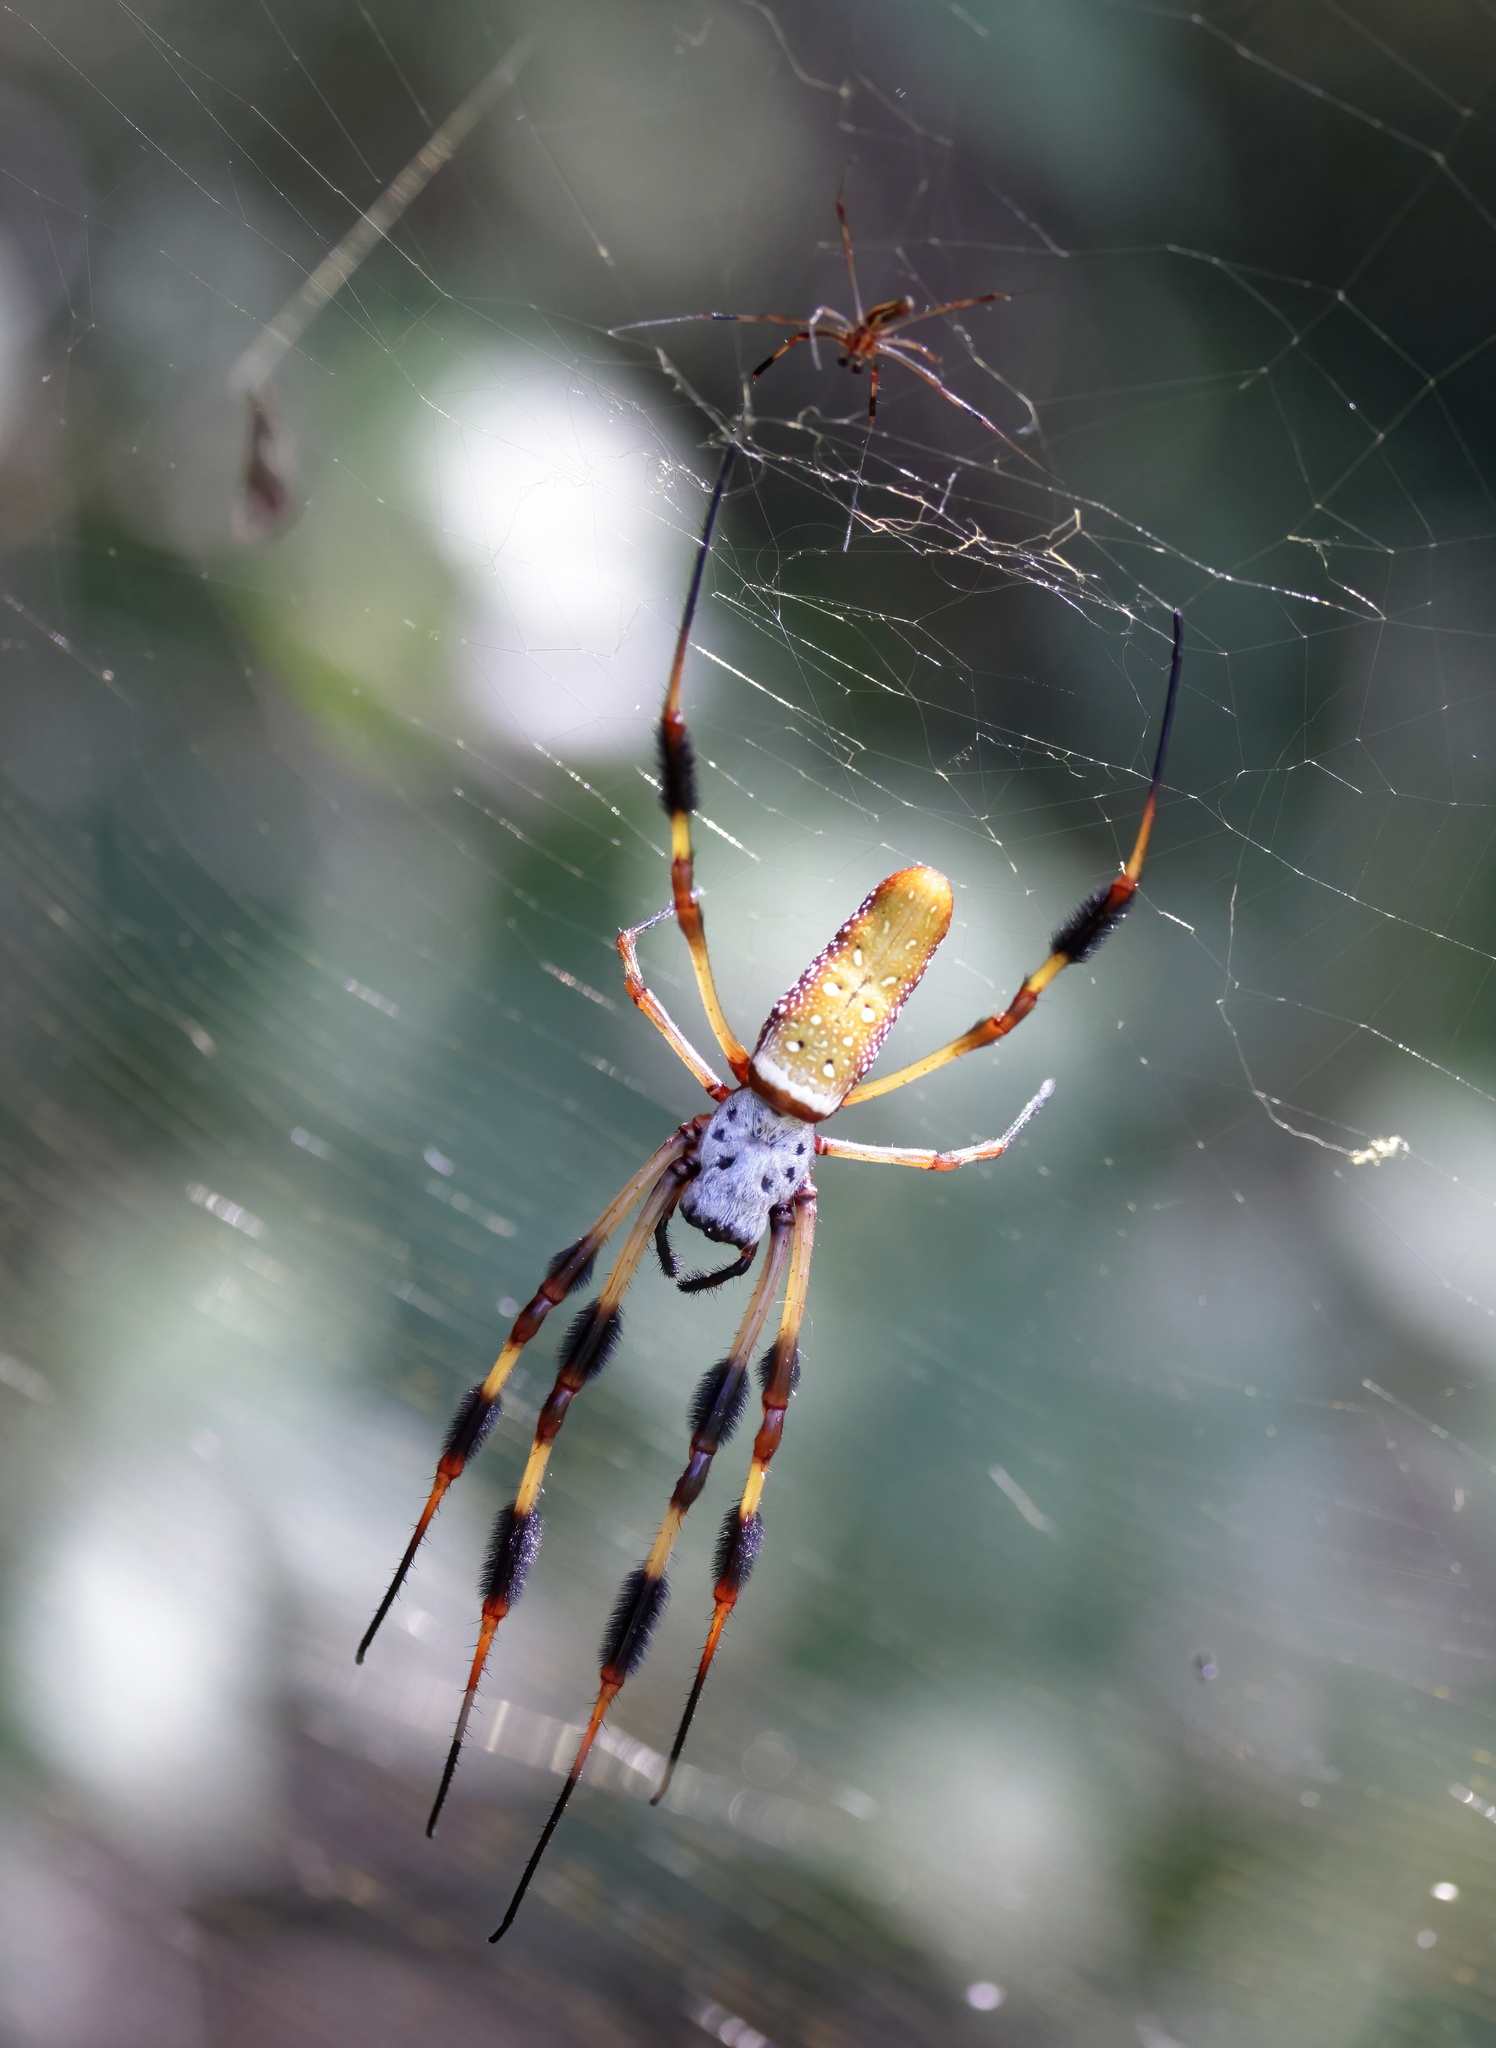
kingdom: Animalia
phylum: Arthropoda
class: Arachnida
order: Araneae
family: Araneidae
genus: Trichonephila
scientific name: Trichonephila clavipes
